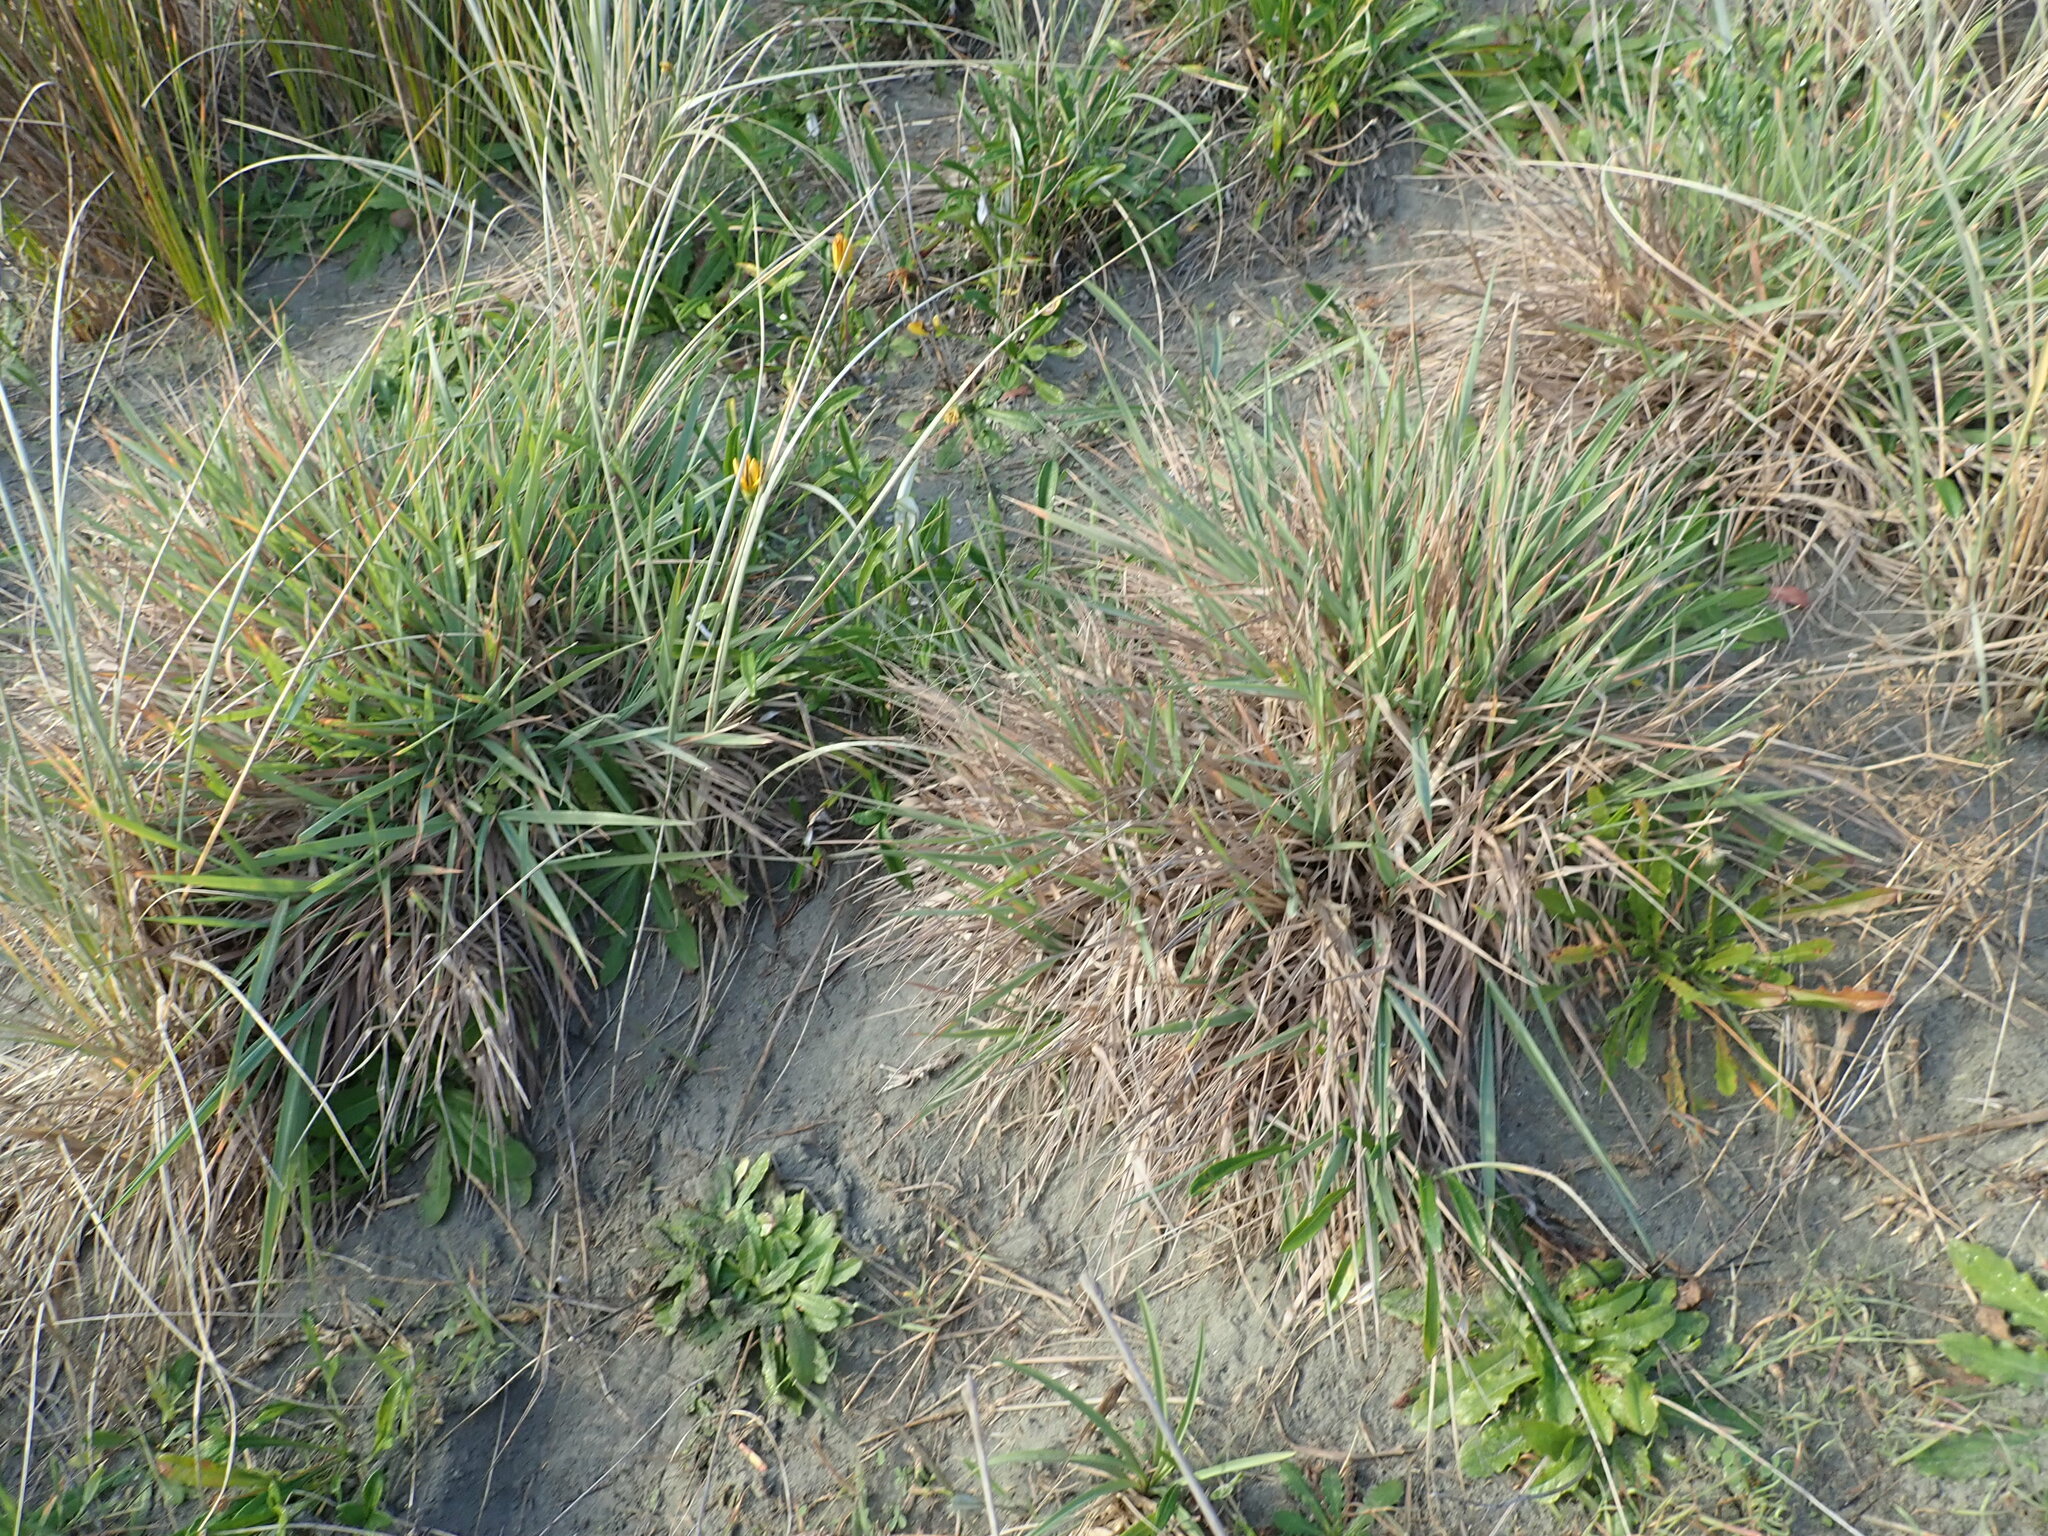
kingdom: Plantae
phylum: Tracheophyta
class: Liliopsida
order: Poales
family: Poaceae
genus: Lachnagrostis
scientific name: Lachnagrostis billardierei
